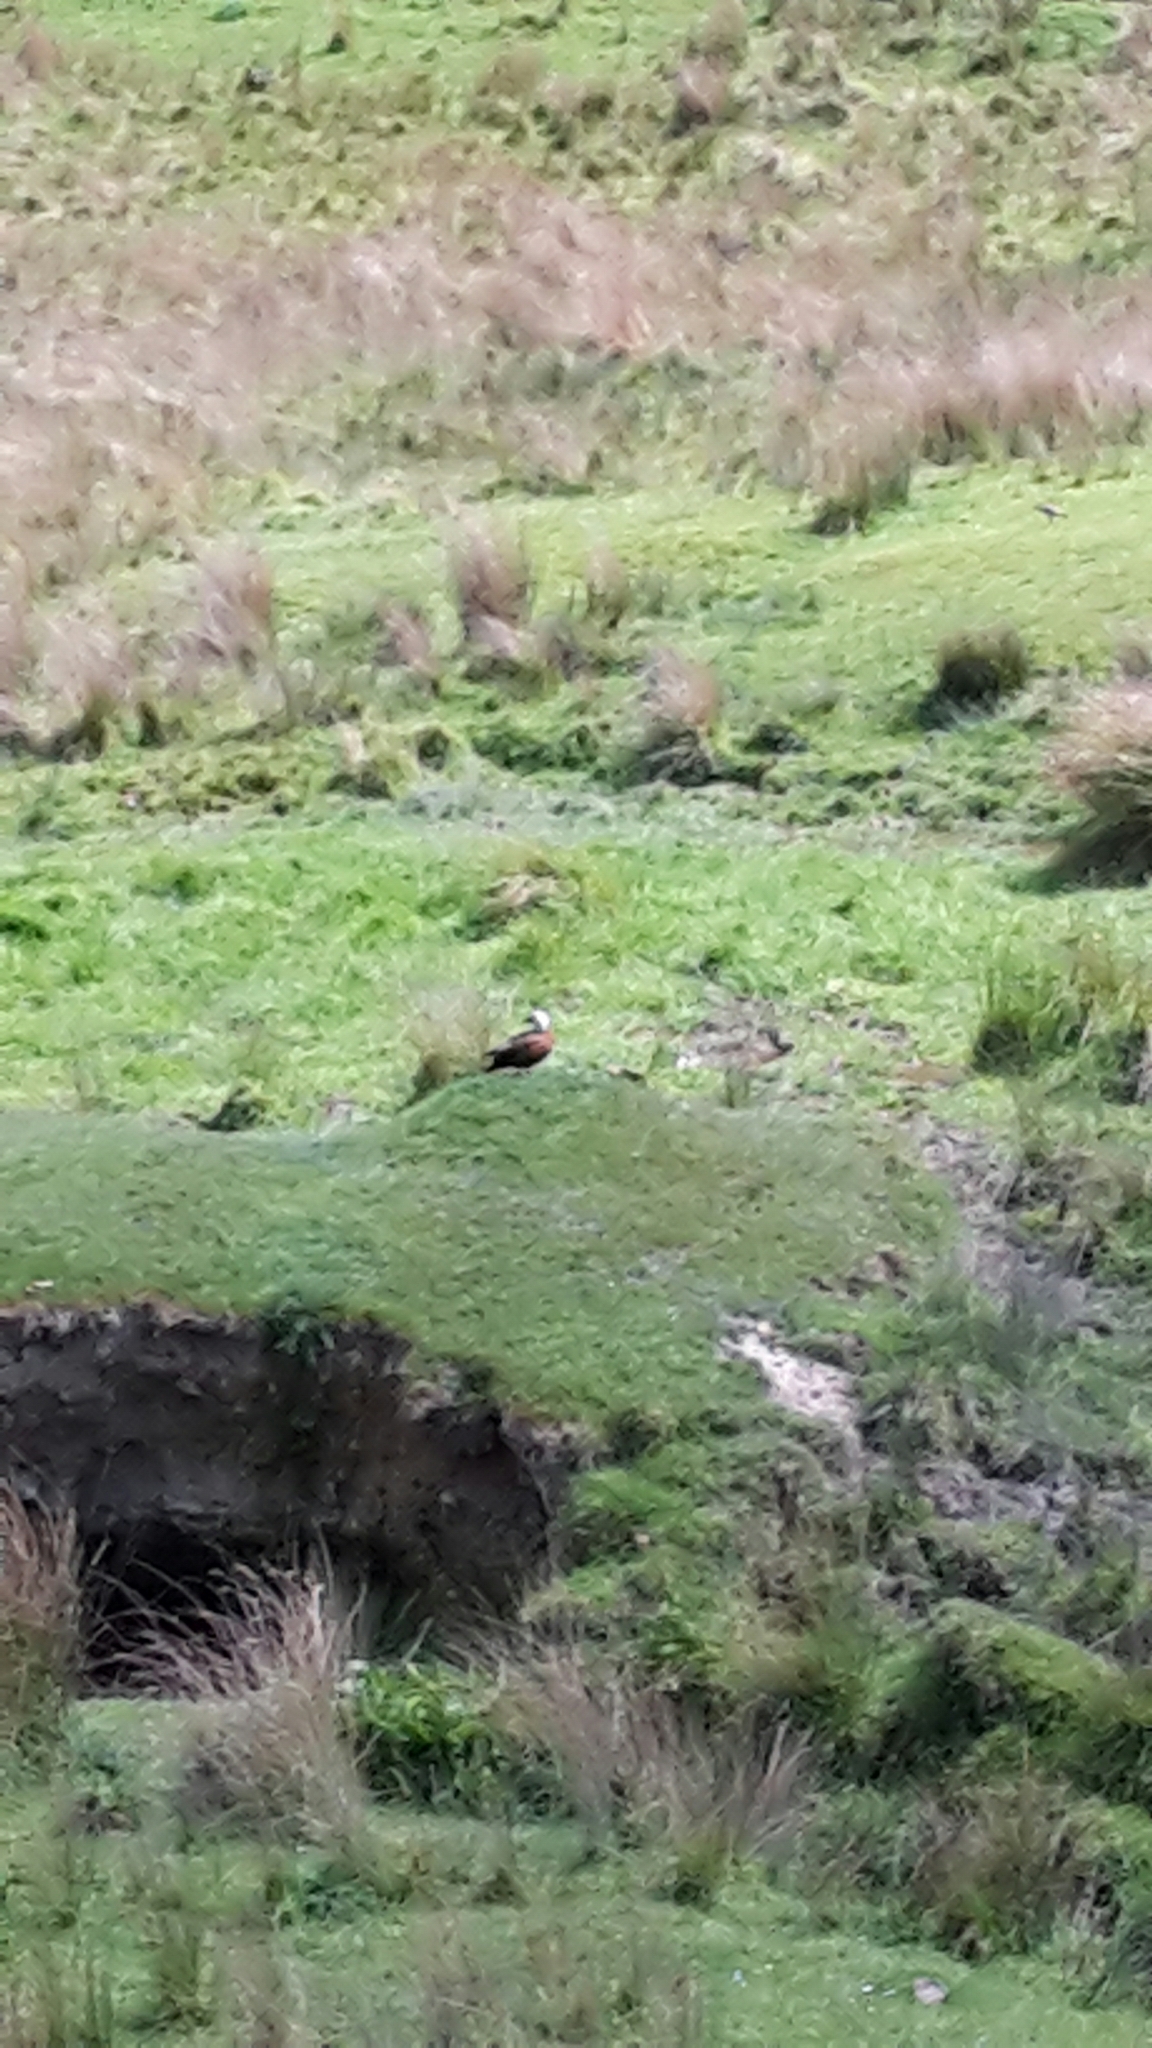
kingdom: Animalia
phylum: Chordata
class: Aves
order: Anseriformes
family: Anatidae
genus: Tadorna
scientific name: Tadorna variegata
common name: Paradise shelduck
